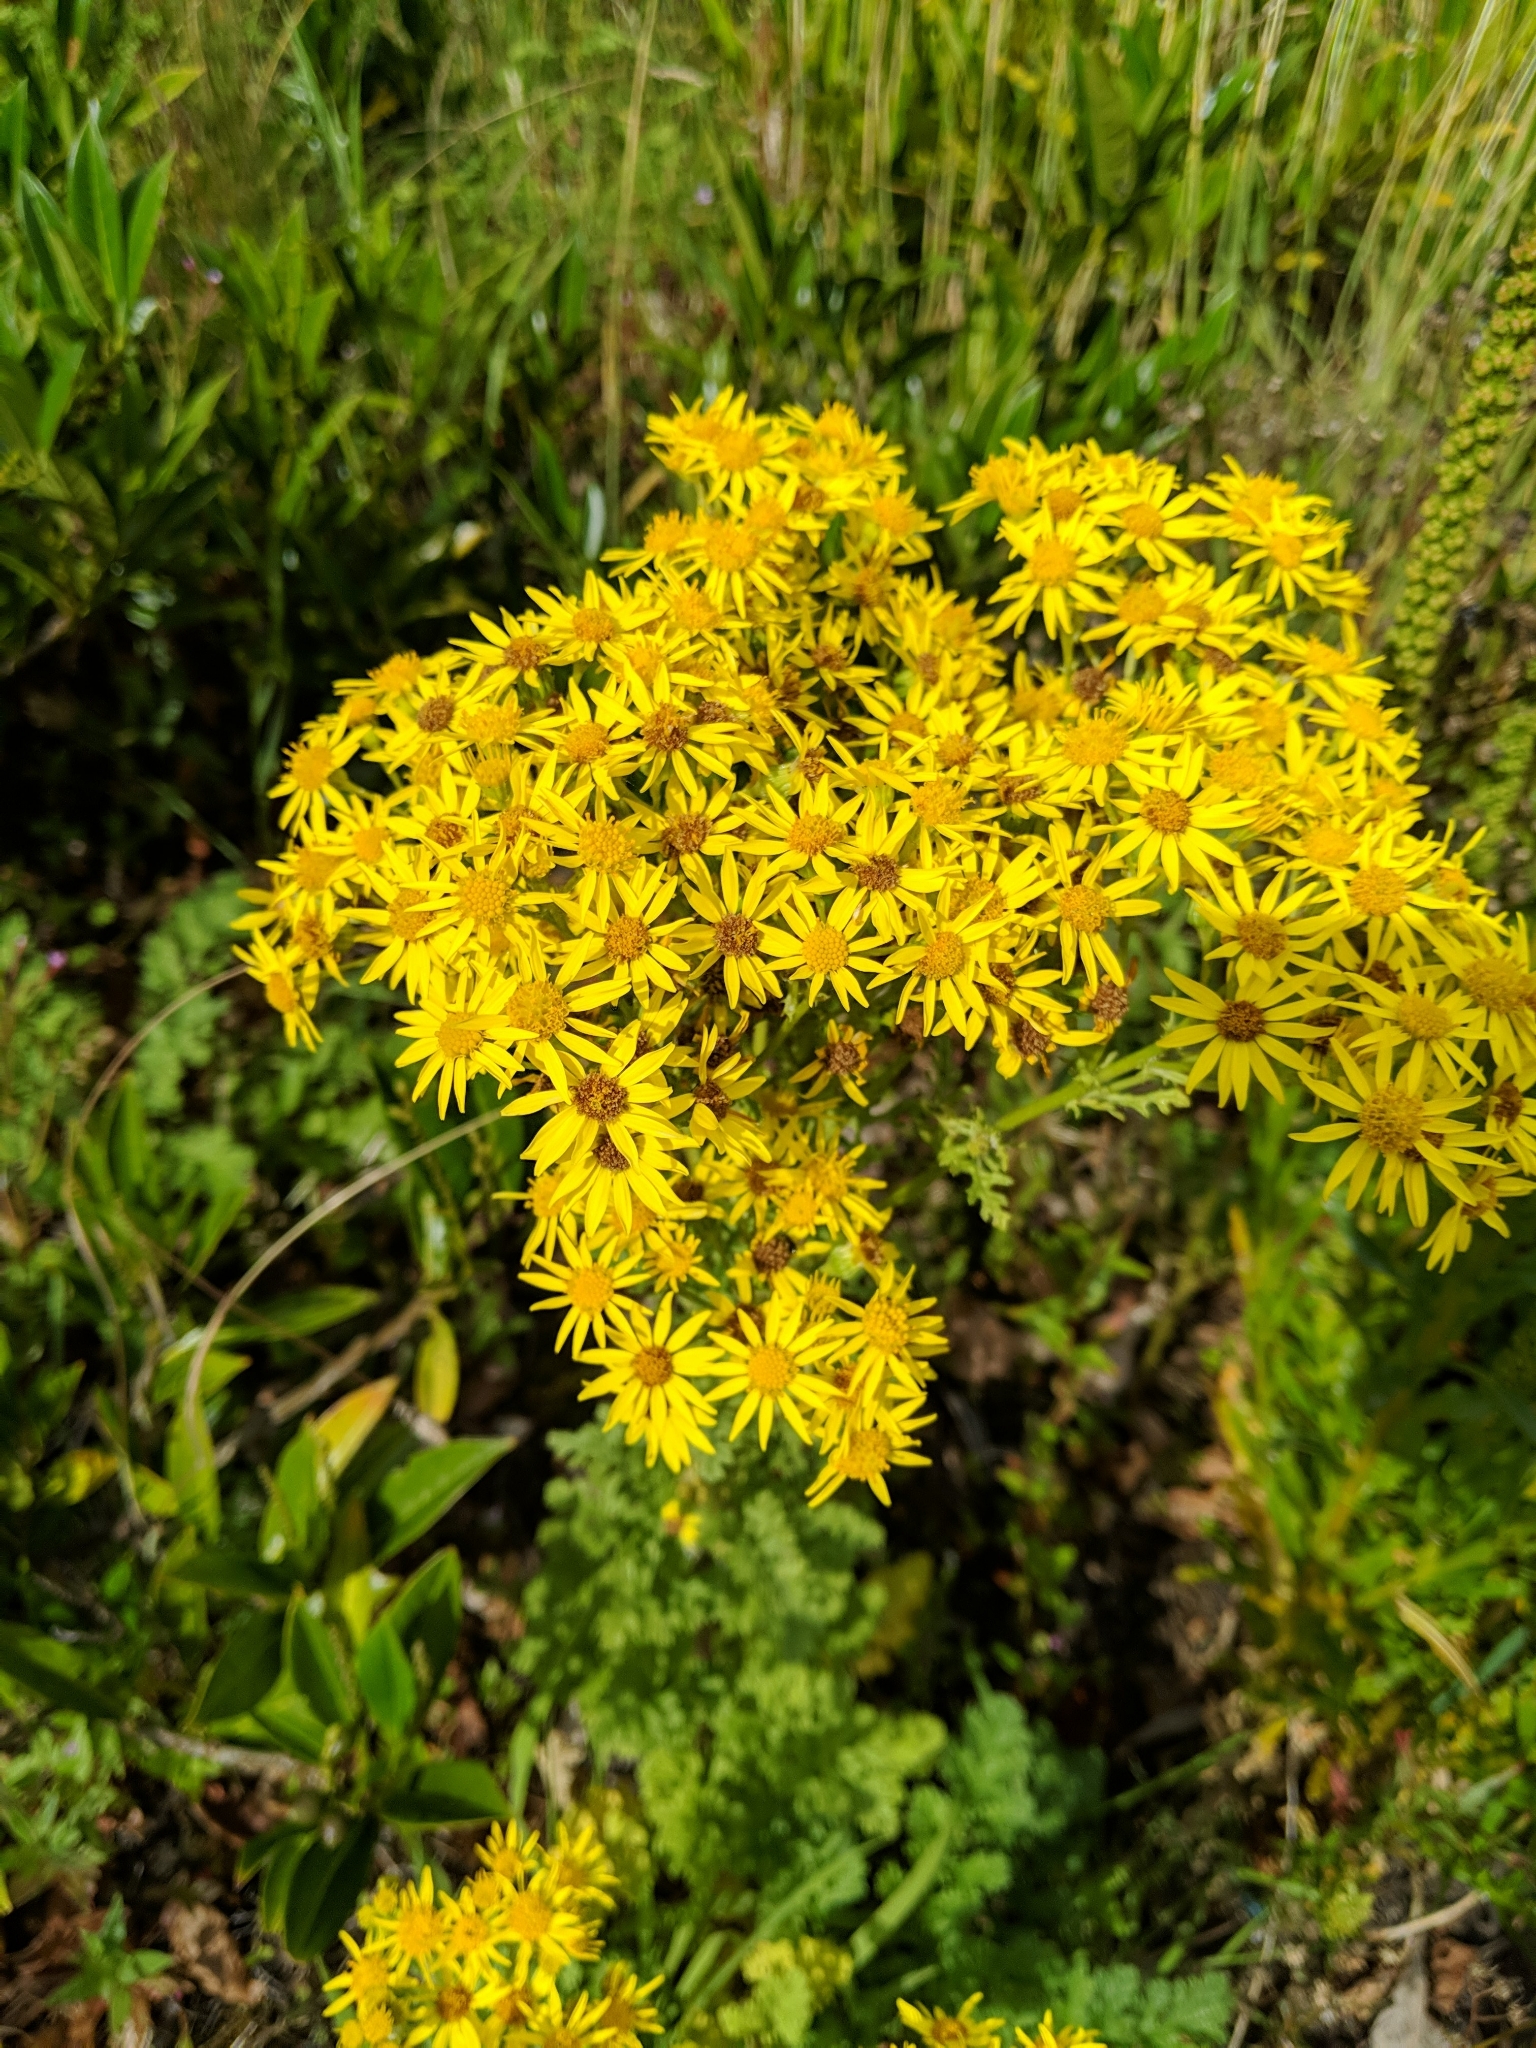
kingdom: Plantae
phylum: Tracheophyta
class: Magnoliopsida
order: Asterales
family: Asteraceae
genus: Jacobaea
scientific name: Jacobaea vulgaris
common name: Stinking willie
